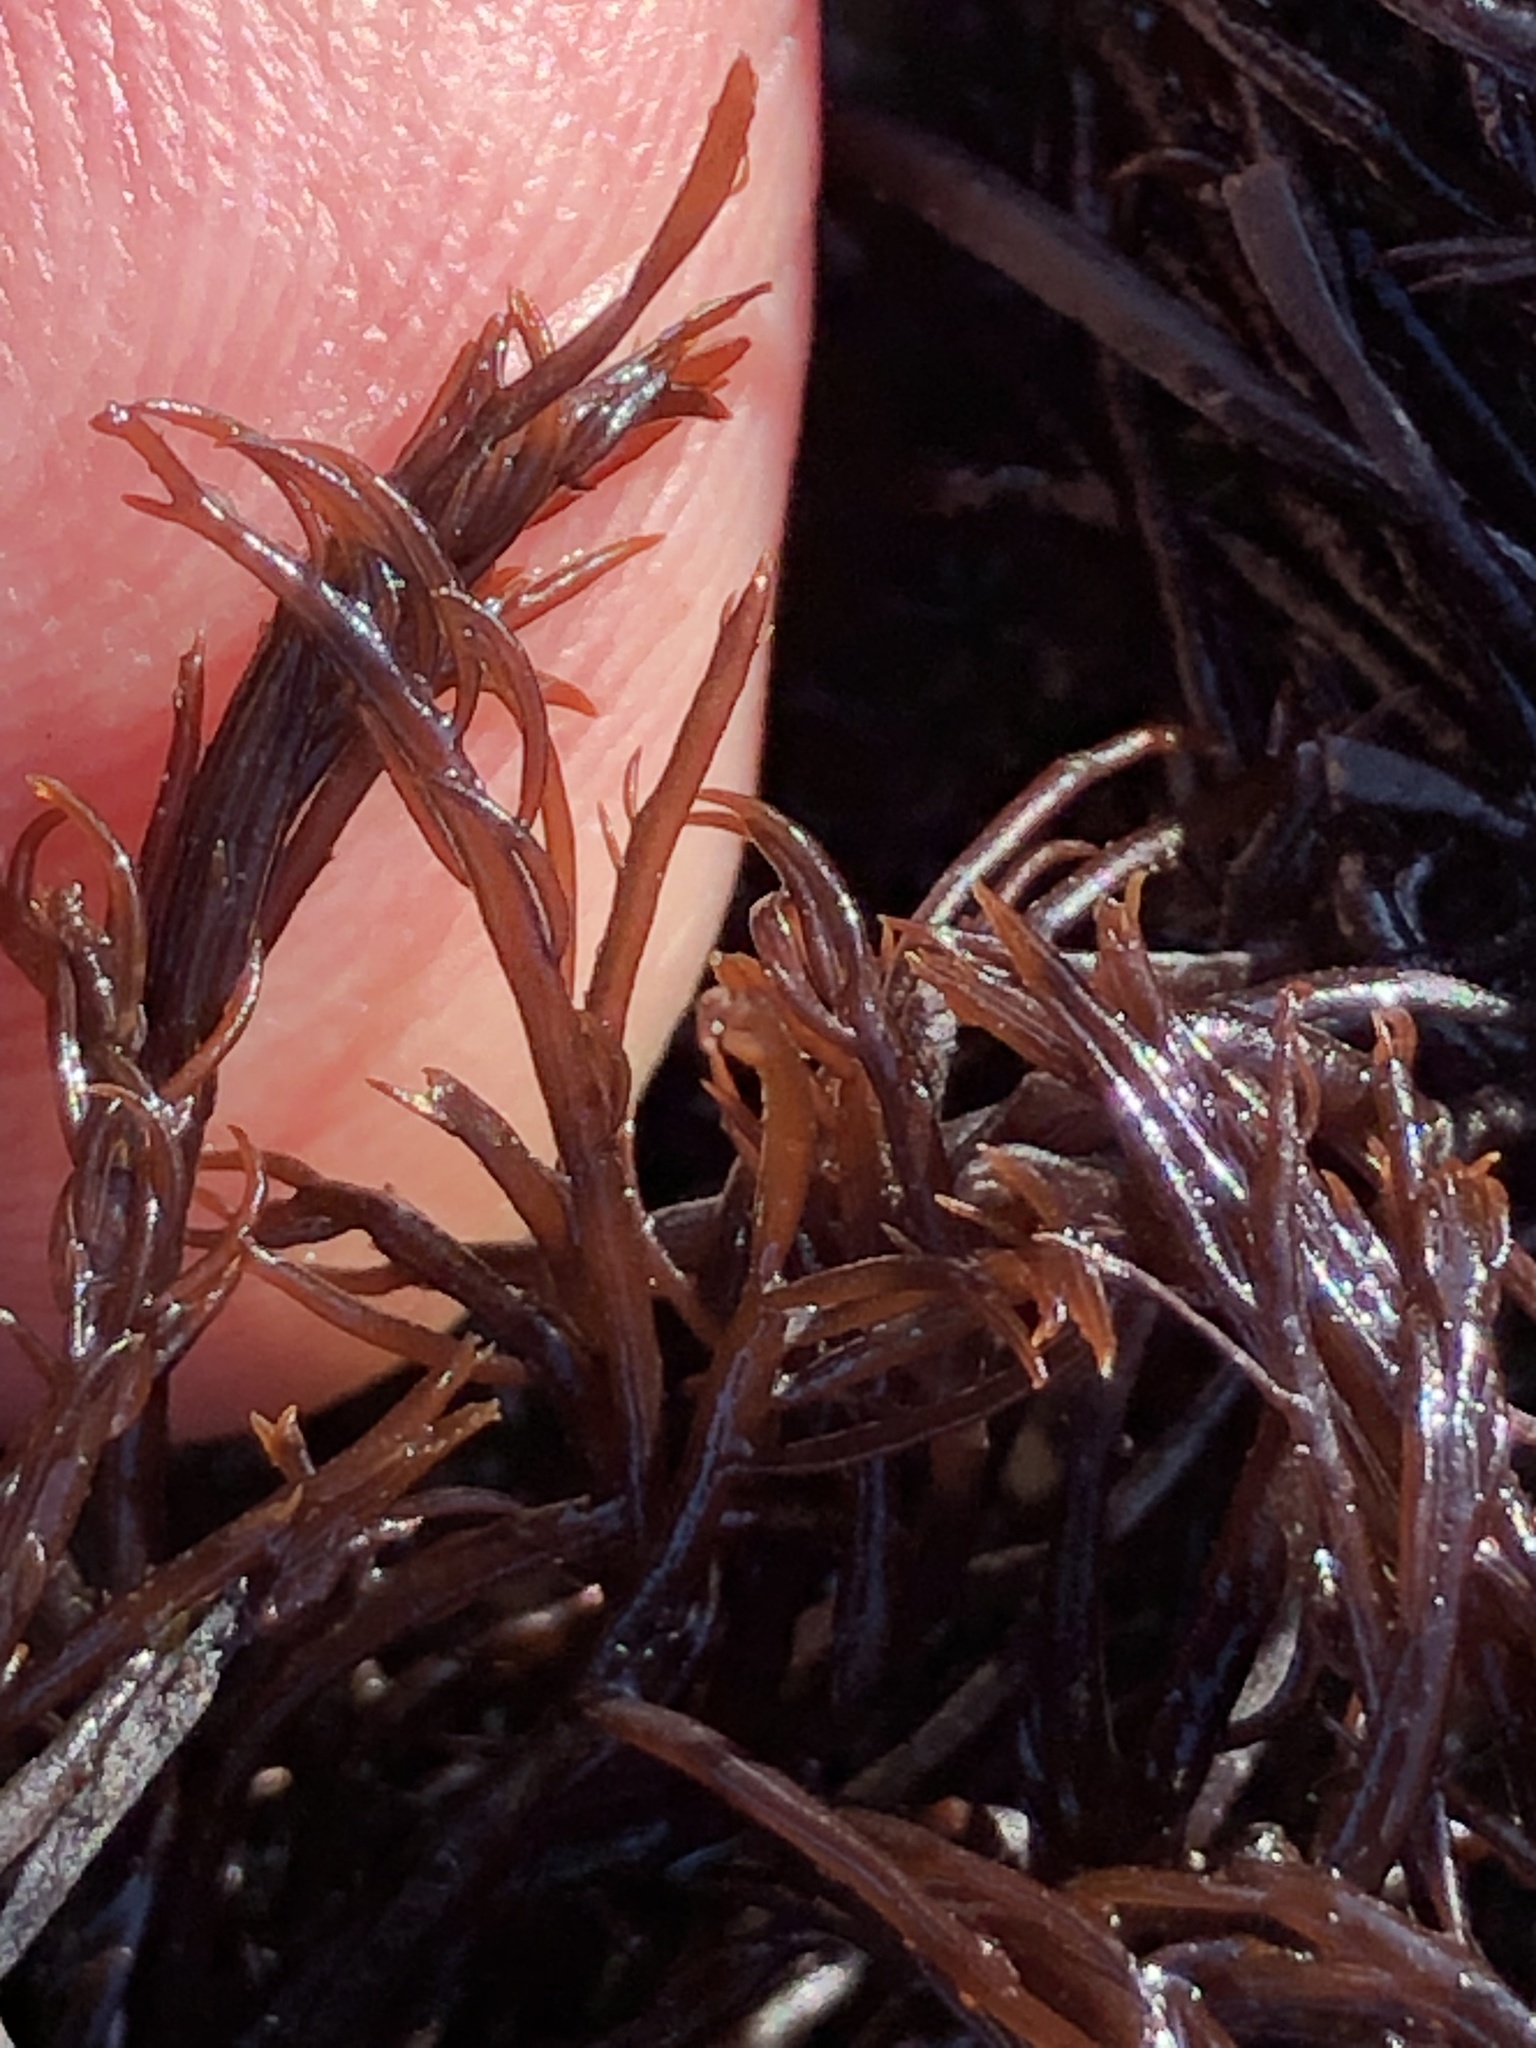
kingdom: Plantae
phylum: Rhodophyta
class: Florideophyceae
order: Gigartinales
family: Dumontiaceae
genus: Cryptosiphonia
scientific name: Cryptosiphonia woodii
